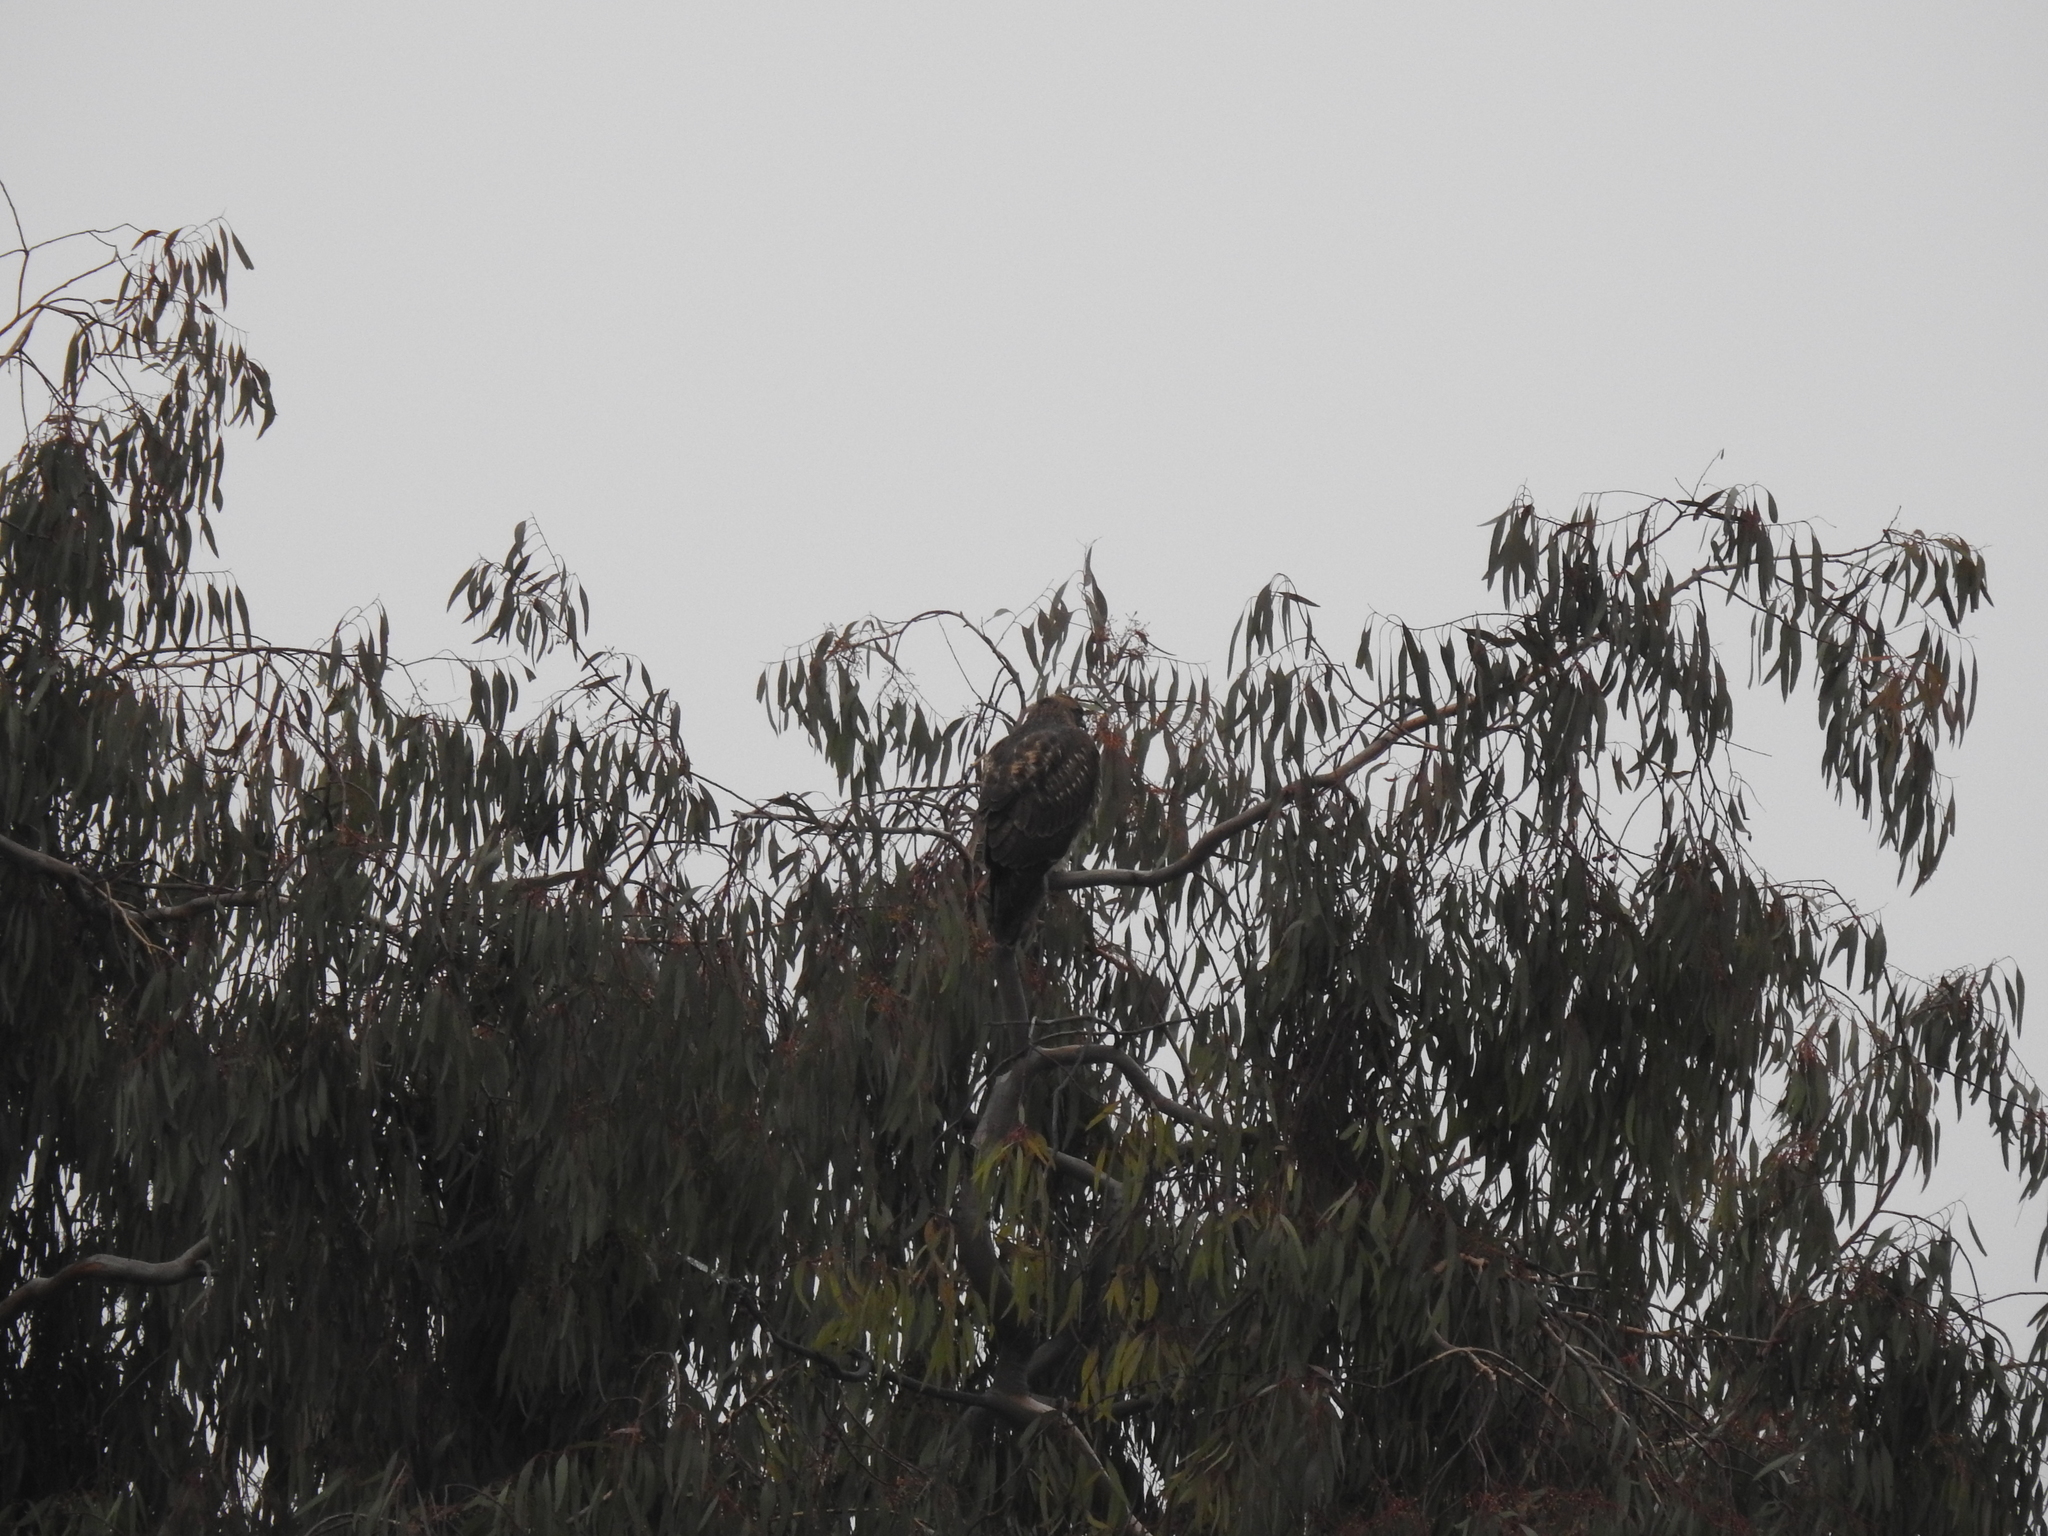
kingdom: Animalia
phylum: Chordata
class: Aves
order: Accipitriformes
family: Accipitridae
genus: Buteo
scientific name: Buteo jamaicensis
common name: Red-tailed hawk
